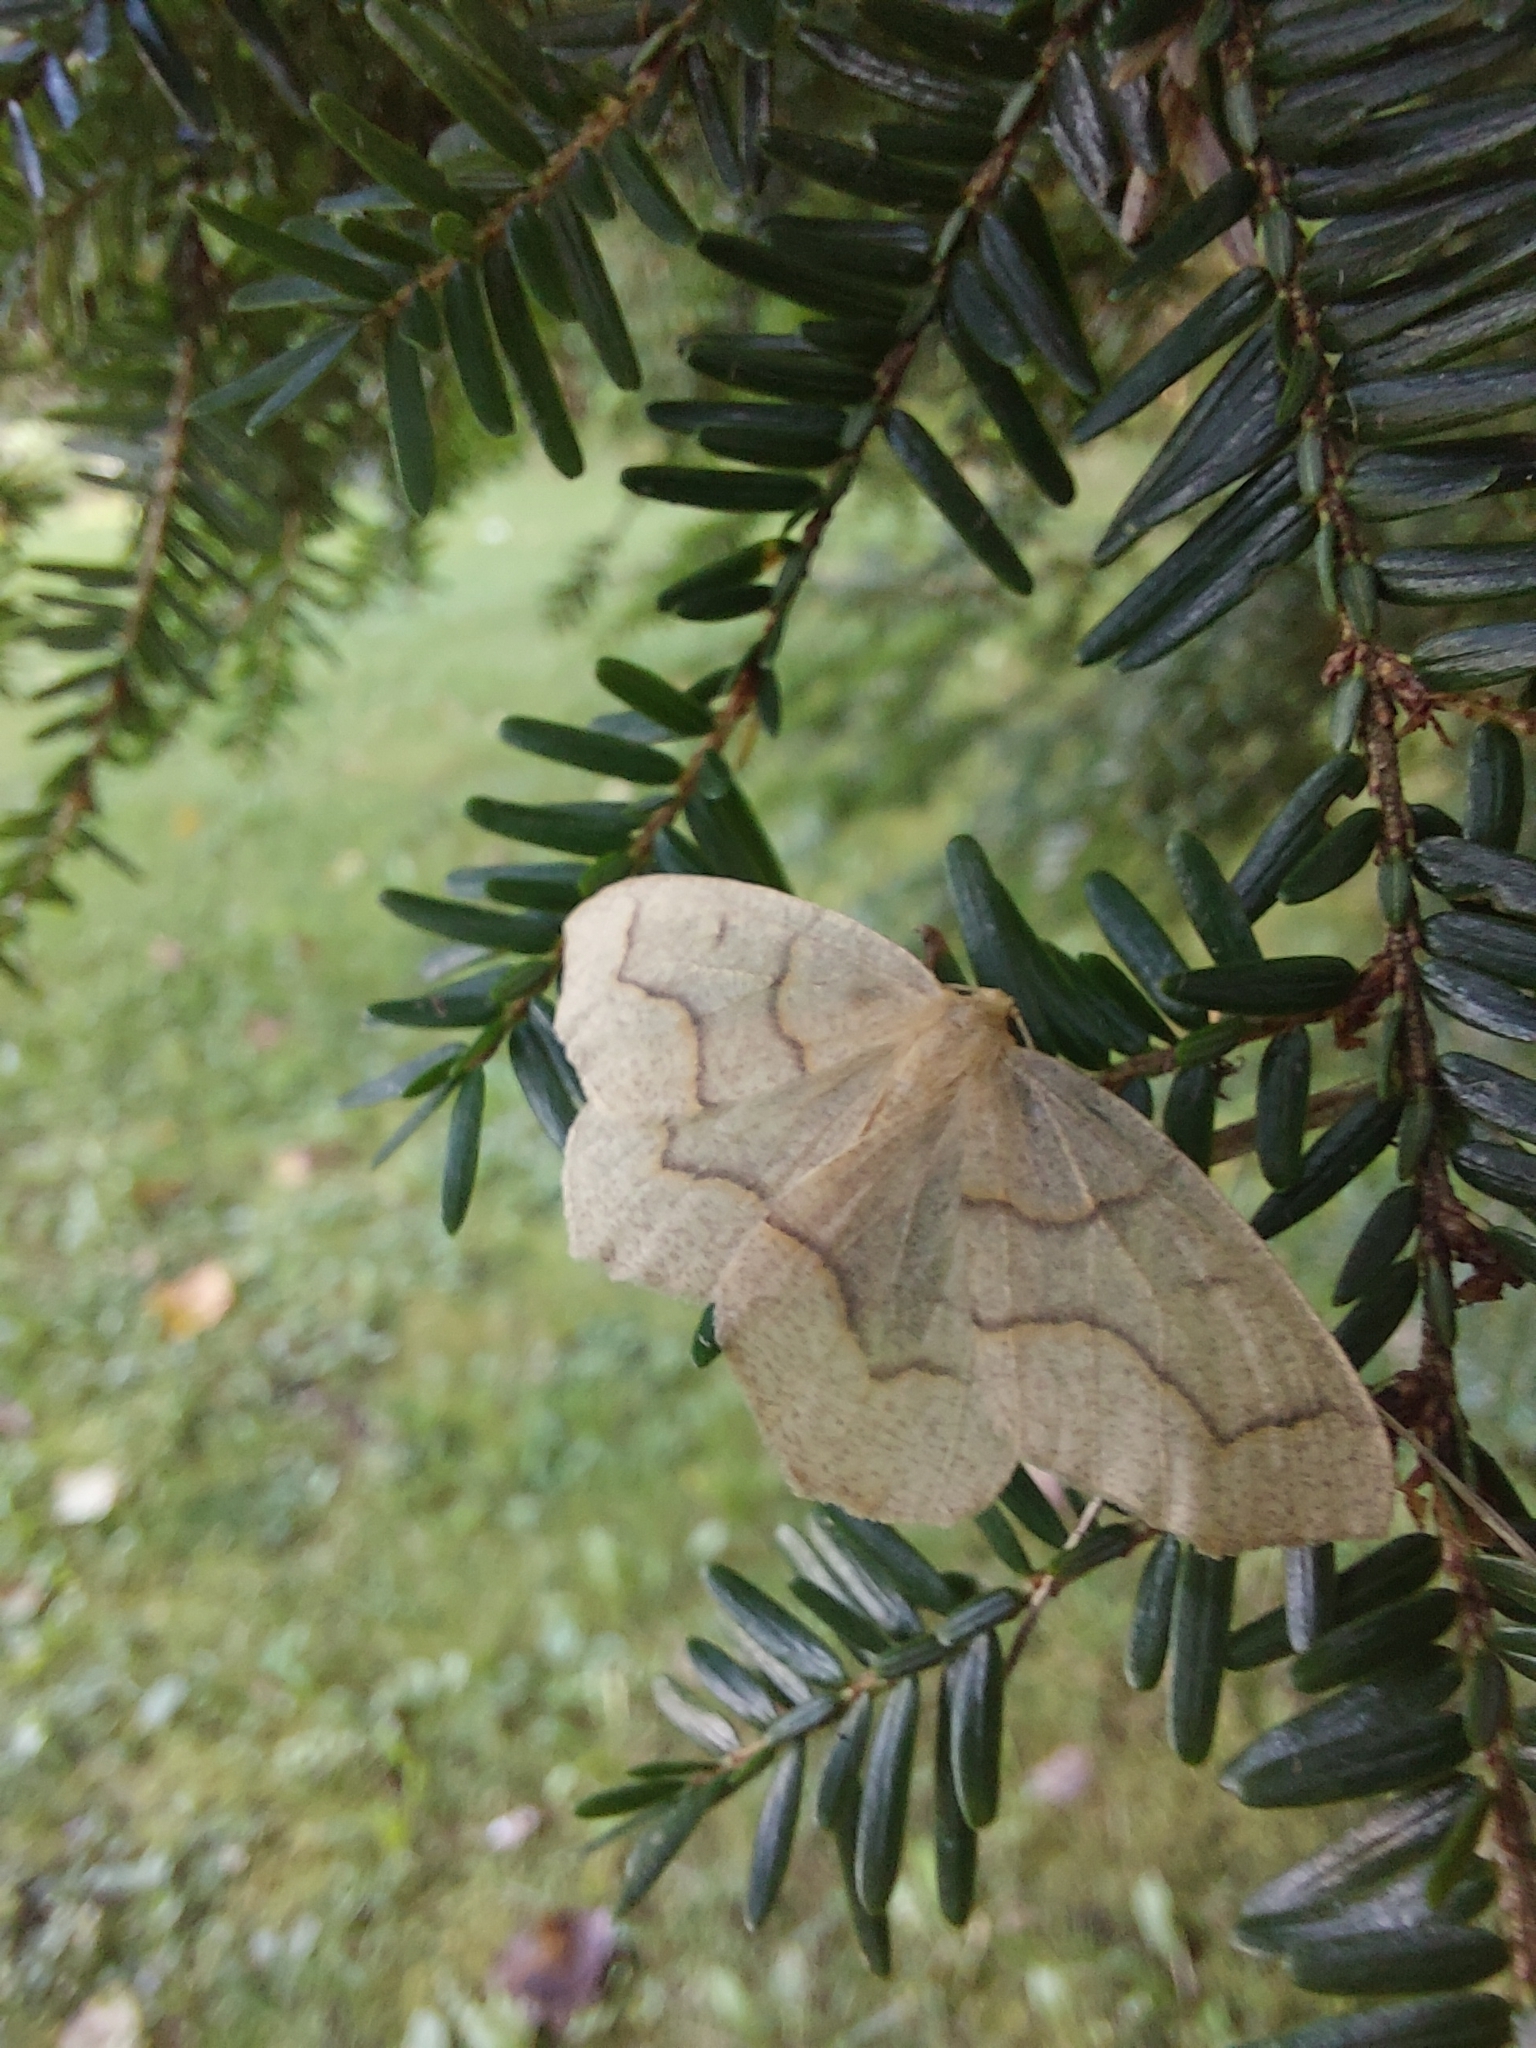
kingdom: Animalia
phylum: Arthropoda
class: Insecta
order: Lepidoptera
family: Geometridae
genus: Lambdina
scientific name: Lambdina fiscellaria
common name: Hemlock looper
